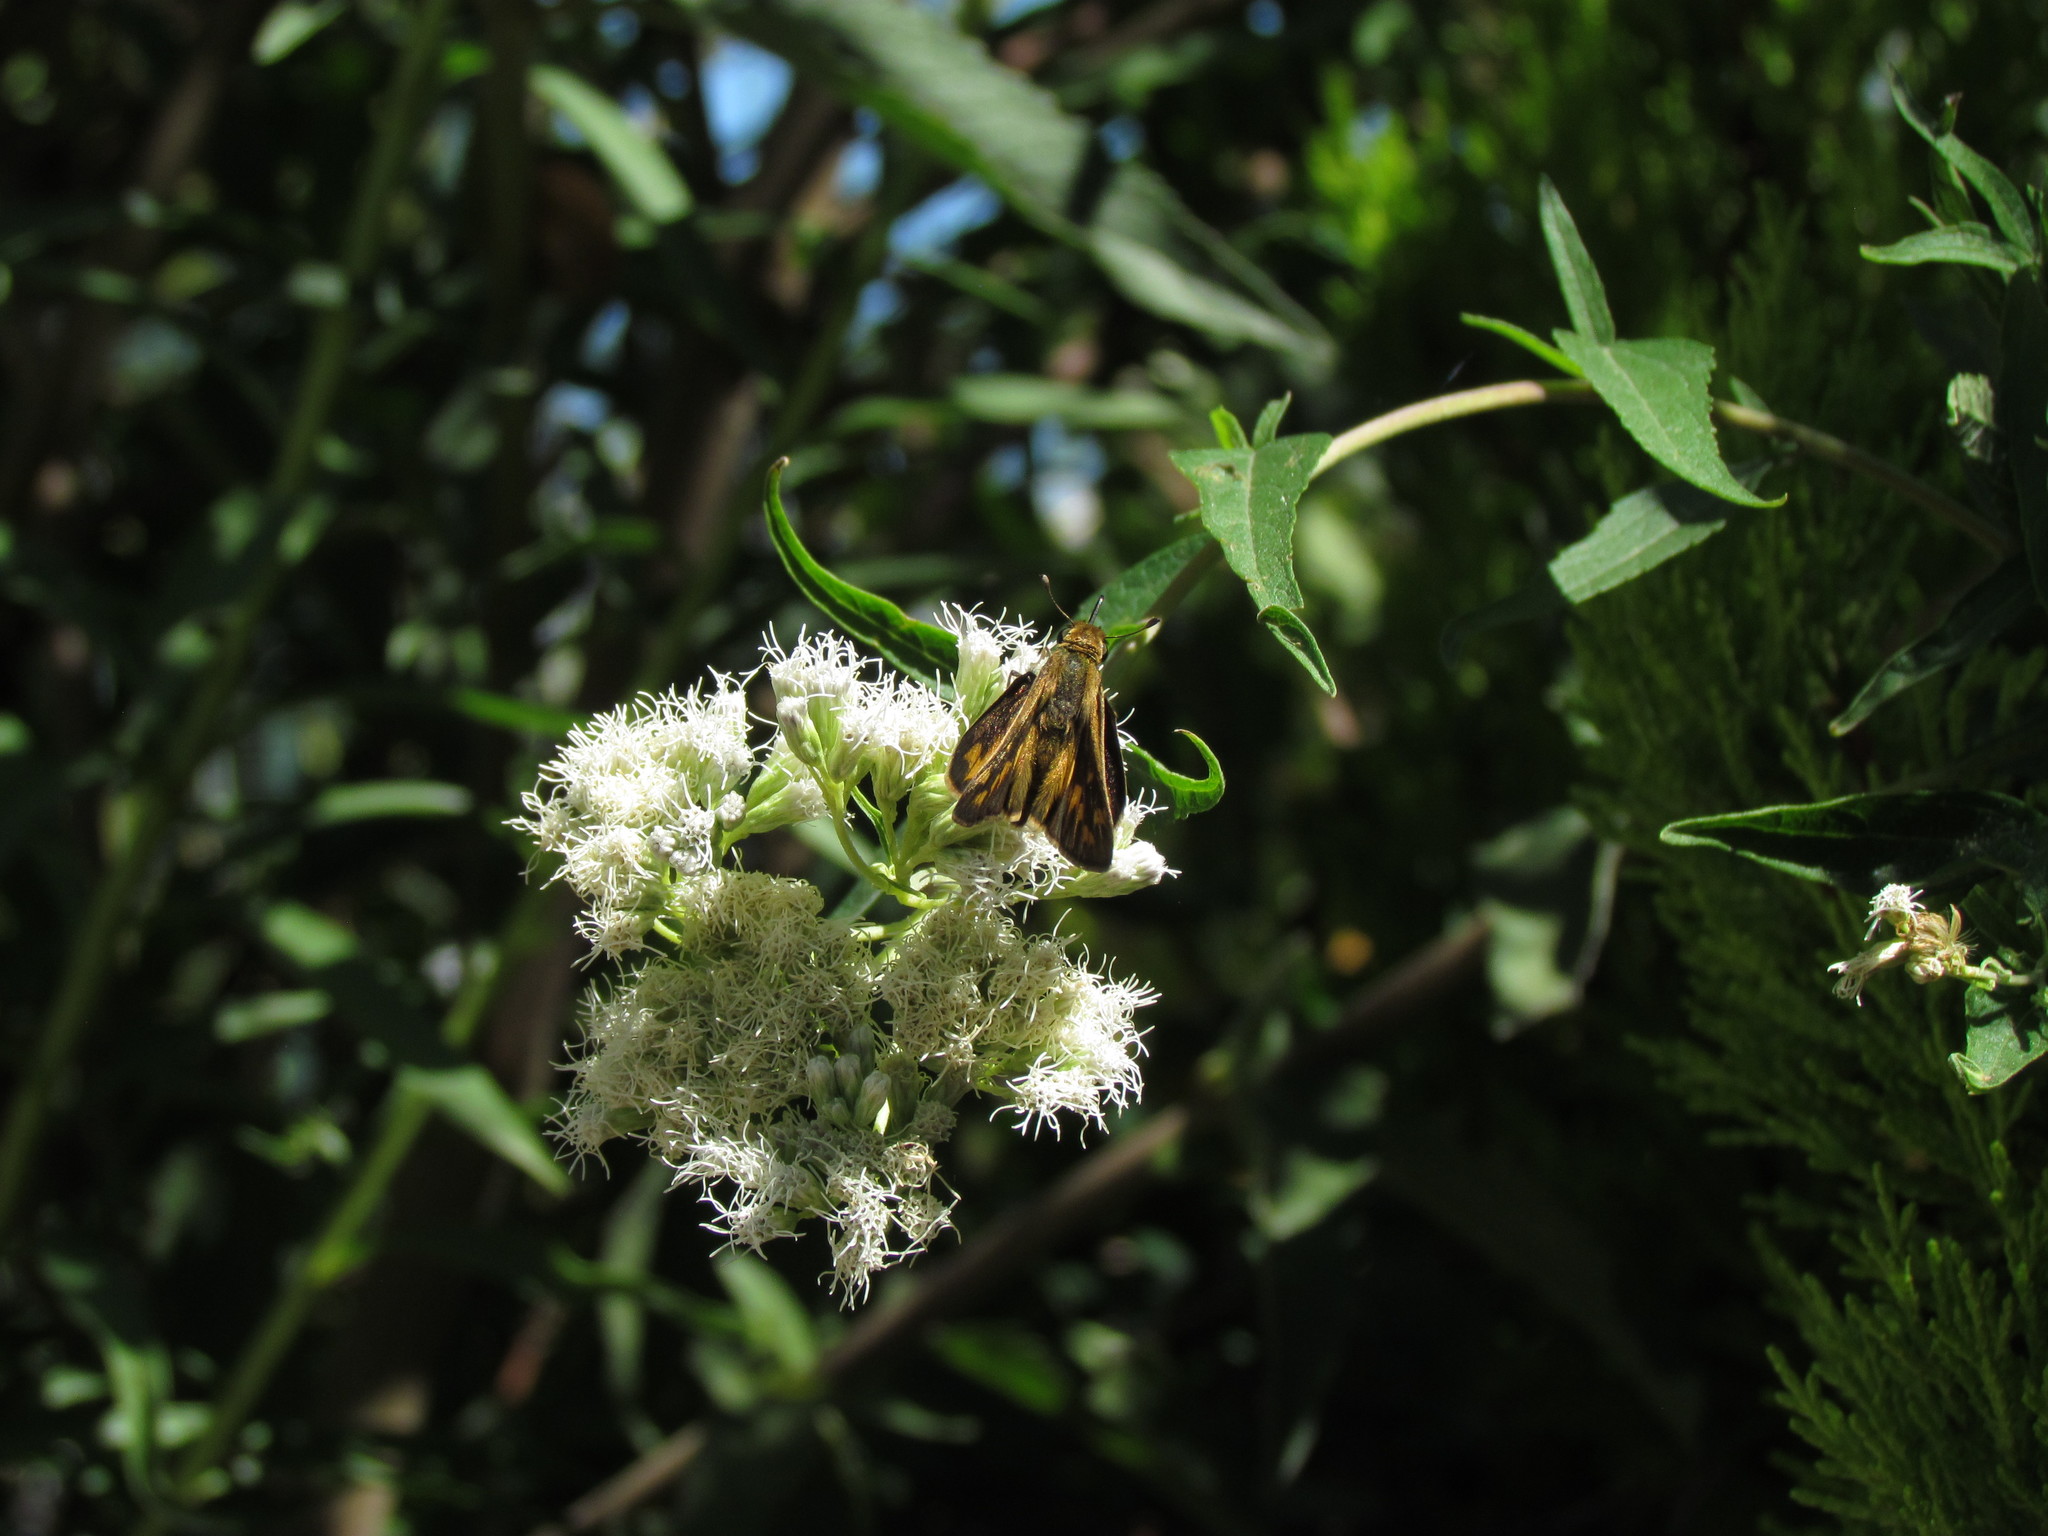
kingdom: Animalia
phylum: Arthropoda
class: Insecta
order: Lepidoptera
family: Hesperiidae
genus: Hylephila
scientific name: Hylephila phyleus
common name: Fiery skipper
